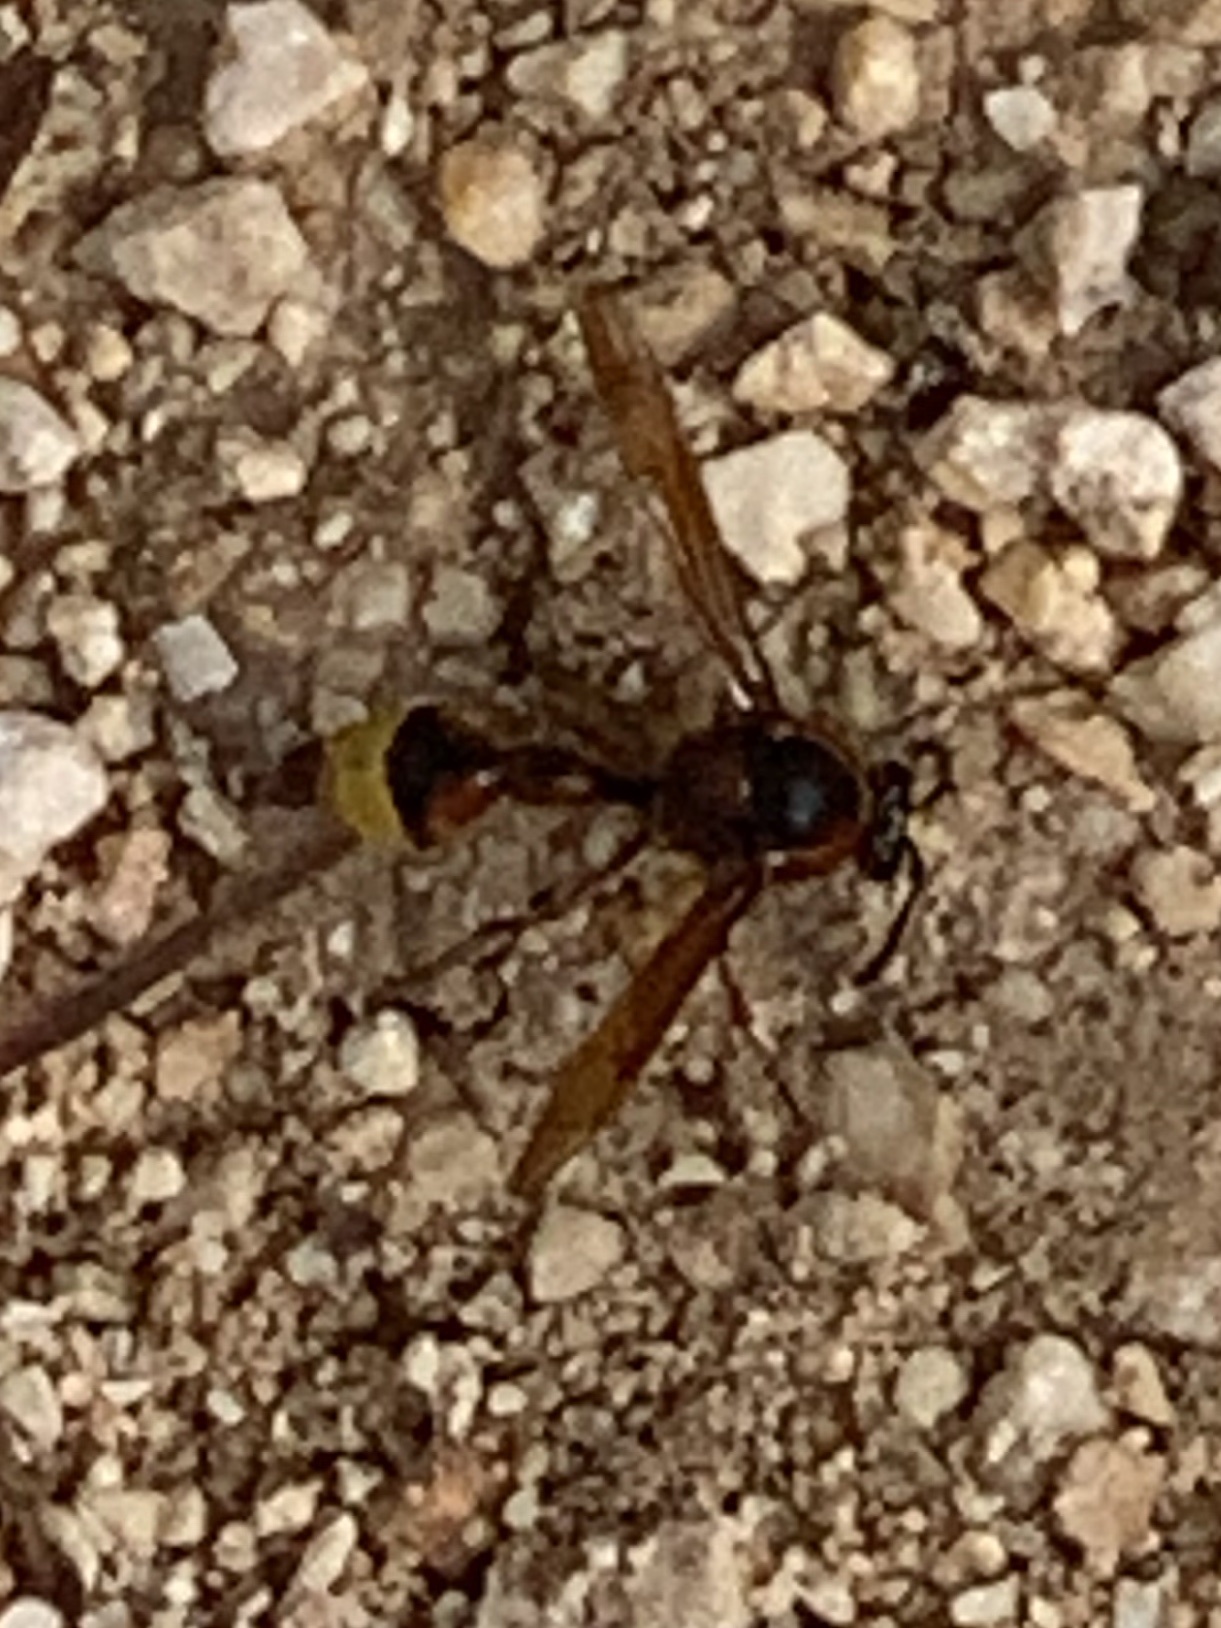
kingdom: Animalia
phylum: Arthropoda
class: Insecta
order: Hymenoptera
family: Eumenidae
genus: Delta
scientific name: Delta unguiculatum
